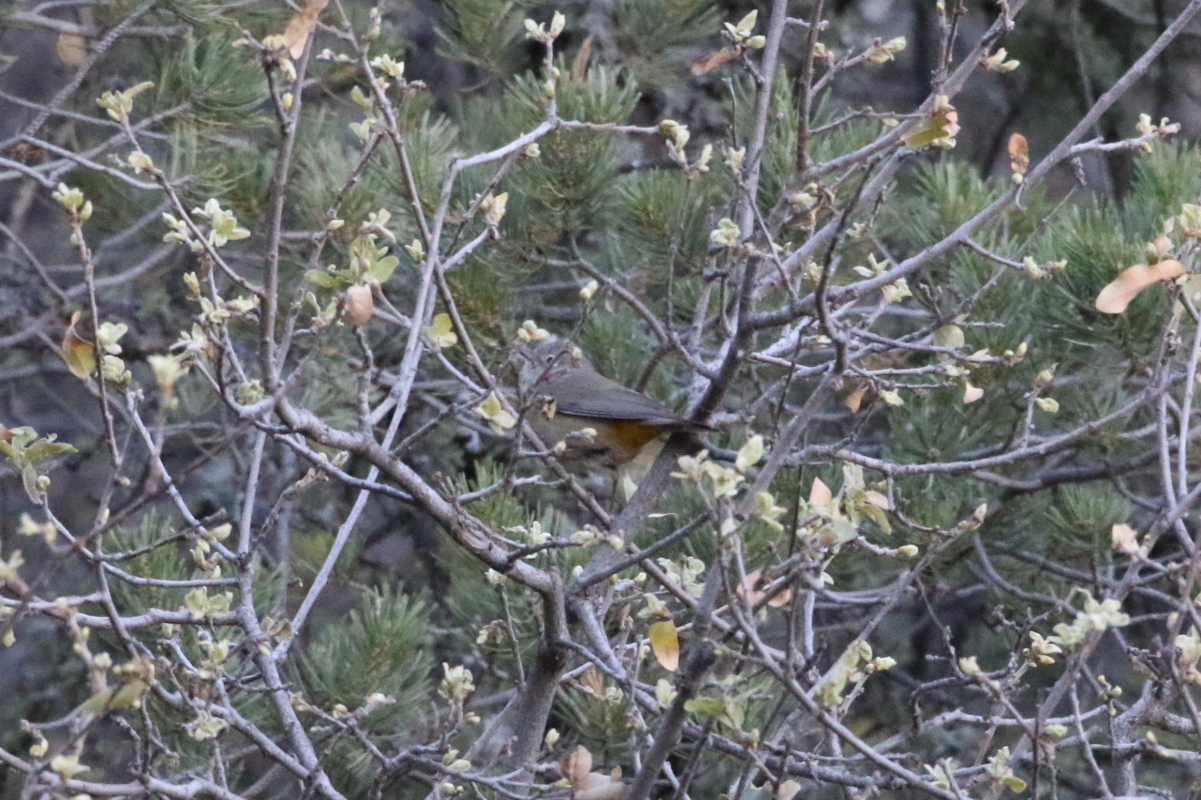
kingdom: Animalia
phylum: Chordata
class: Aves
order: Passeriformes
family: Parulidae
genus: Leiothlypis
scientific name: Leiothlypis crissalis
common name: Colima warbler
